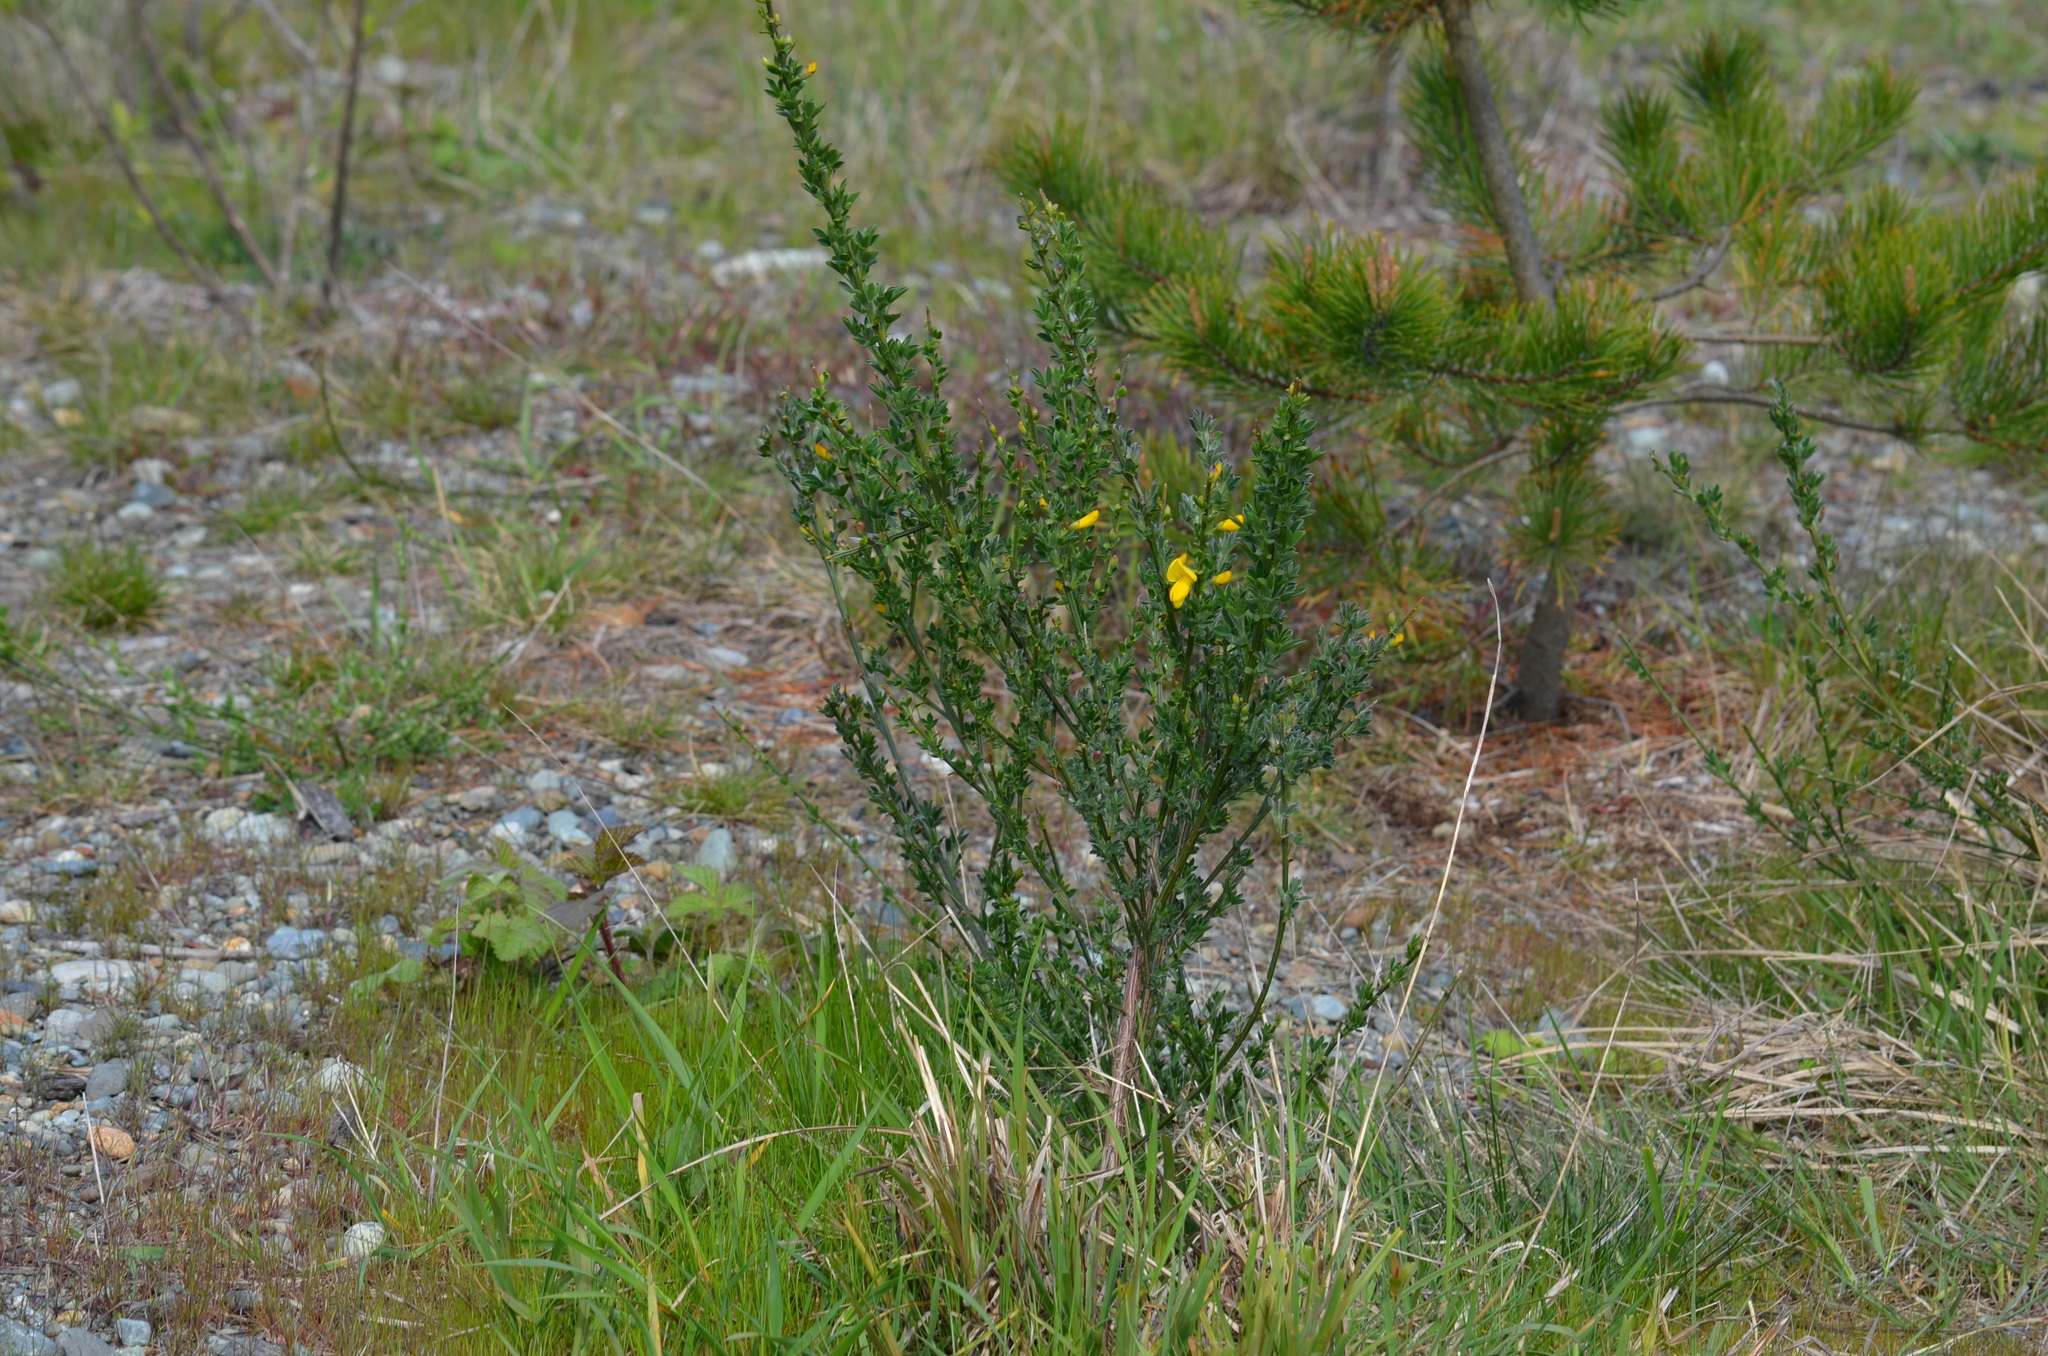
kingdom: Plantae
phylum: Tracheophyta
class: Magnoliopsida
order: Fabales
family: Fabaceae
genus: Cytisus
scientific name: Cytisus scoparius
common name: Scotch broom
